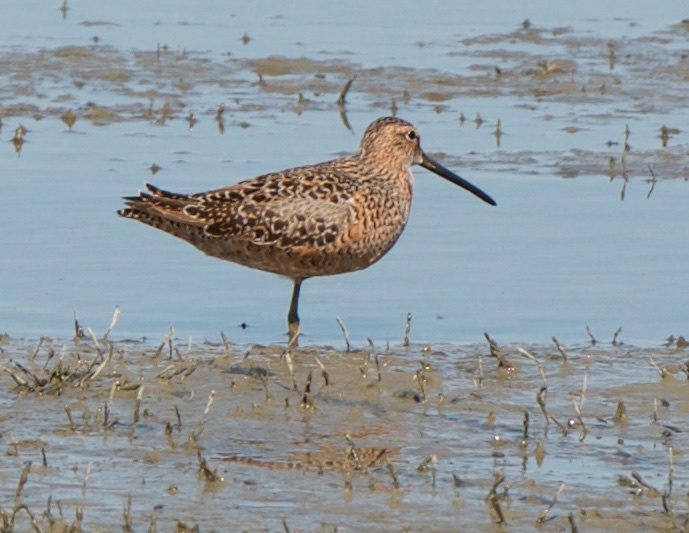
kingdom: Animalia
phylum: Chordata
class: Aves
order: Charadriiformes
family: Scolopacidae
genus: Limnodromus
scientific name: Limnodromus scolopaceus
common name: Long-billed dowitcher
